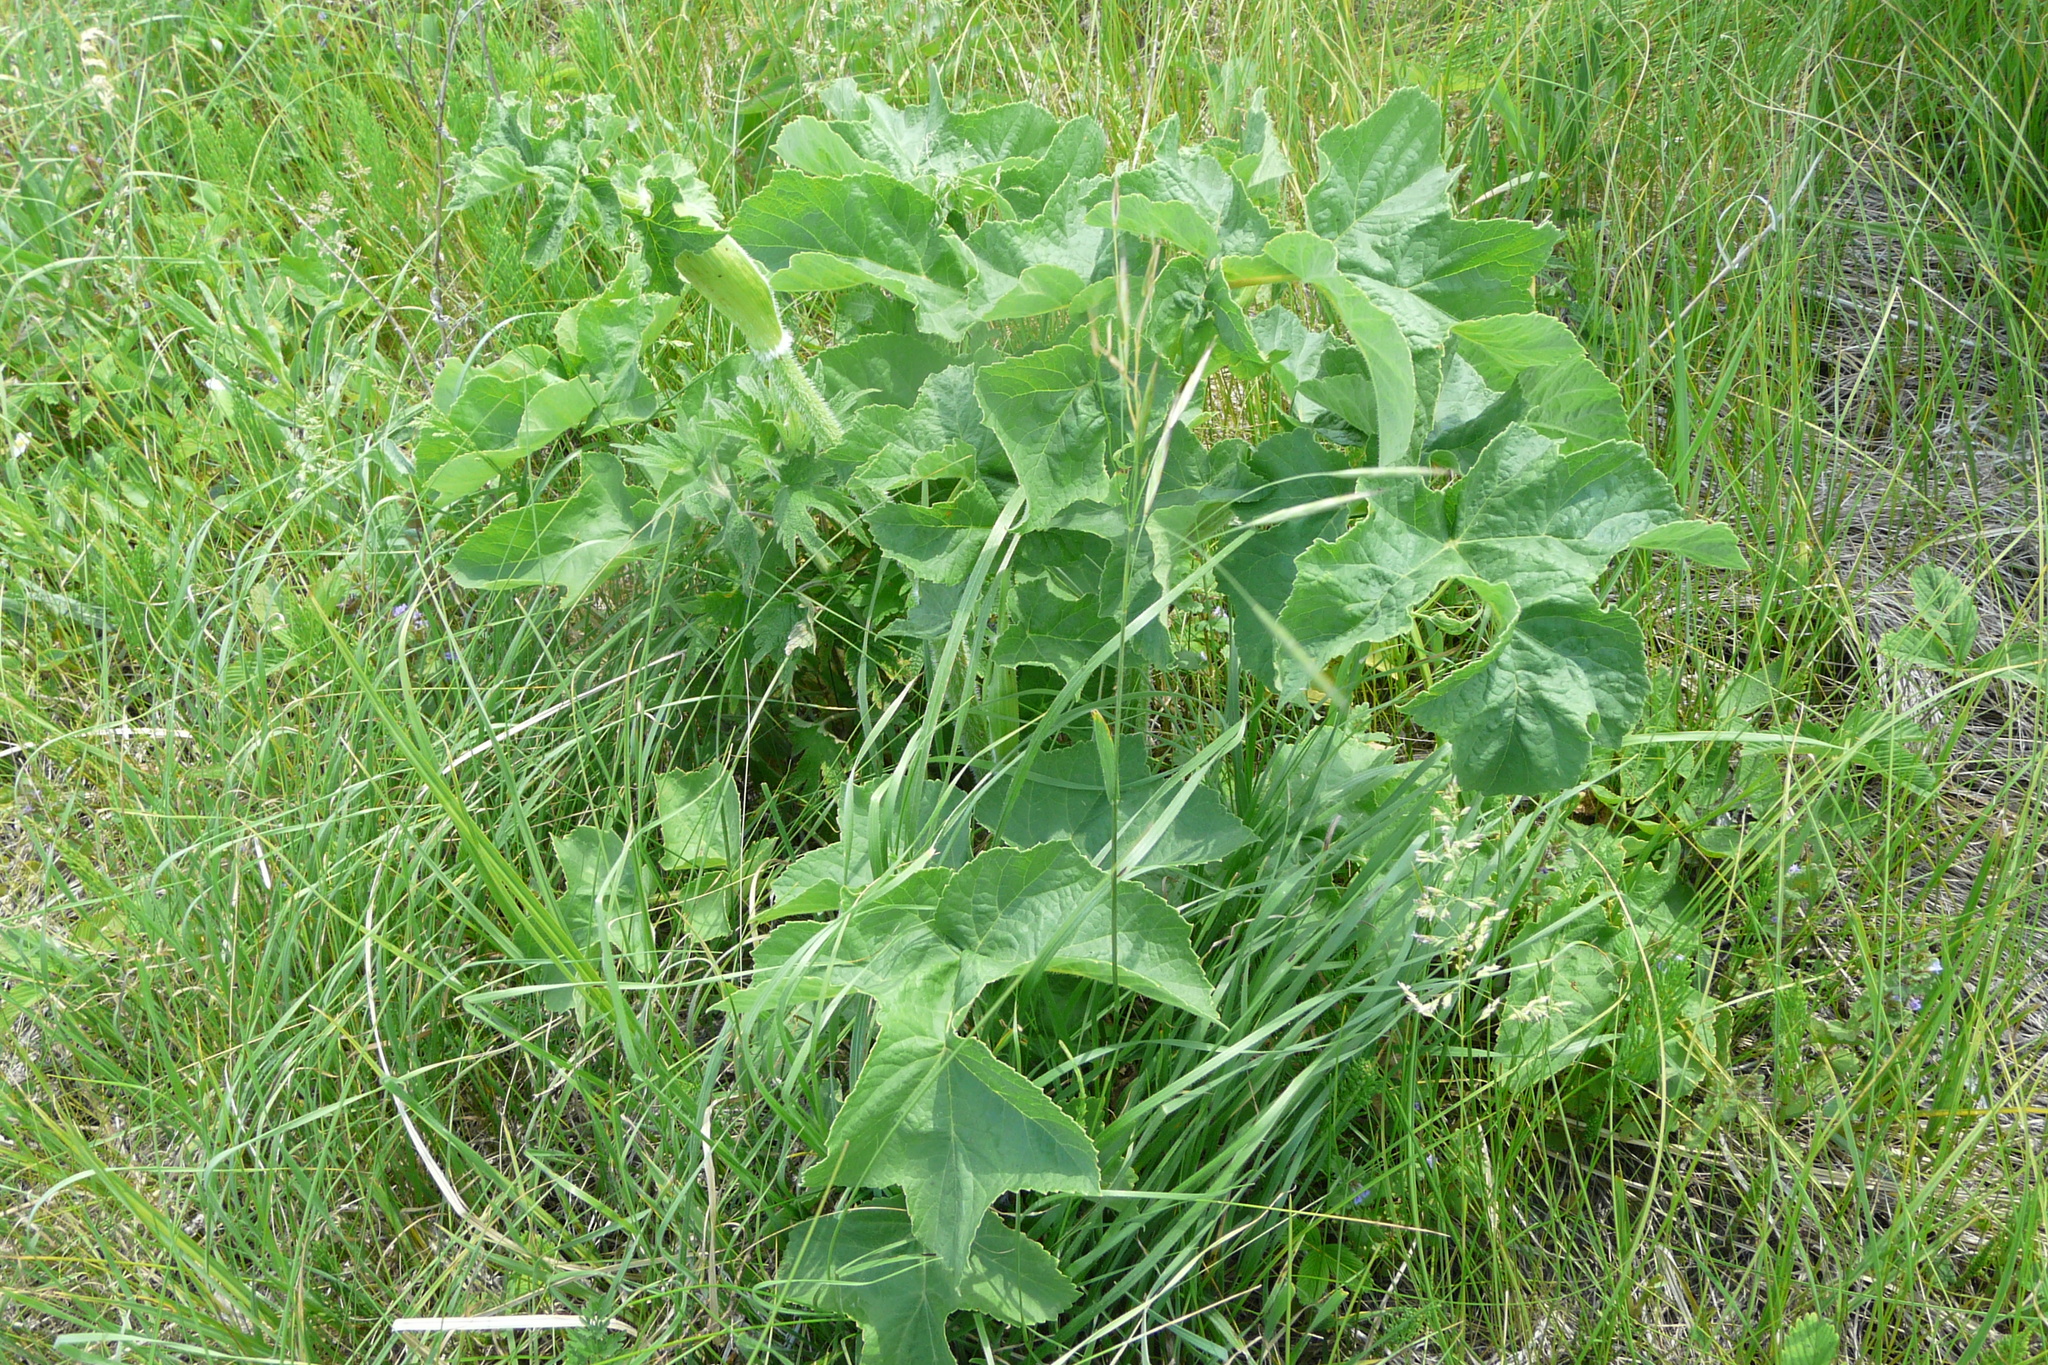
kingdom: Plantae
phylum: Tracheophyta
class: Magnoliopsida
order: Apiales
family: Apiaceae
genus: Heracleum
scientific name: Heracleum sphondylium
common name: Hogweed
